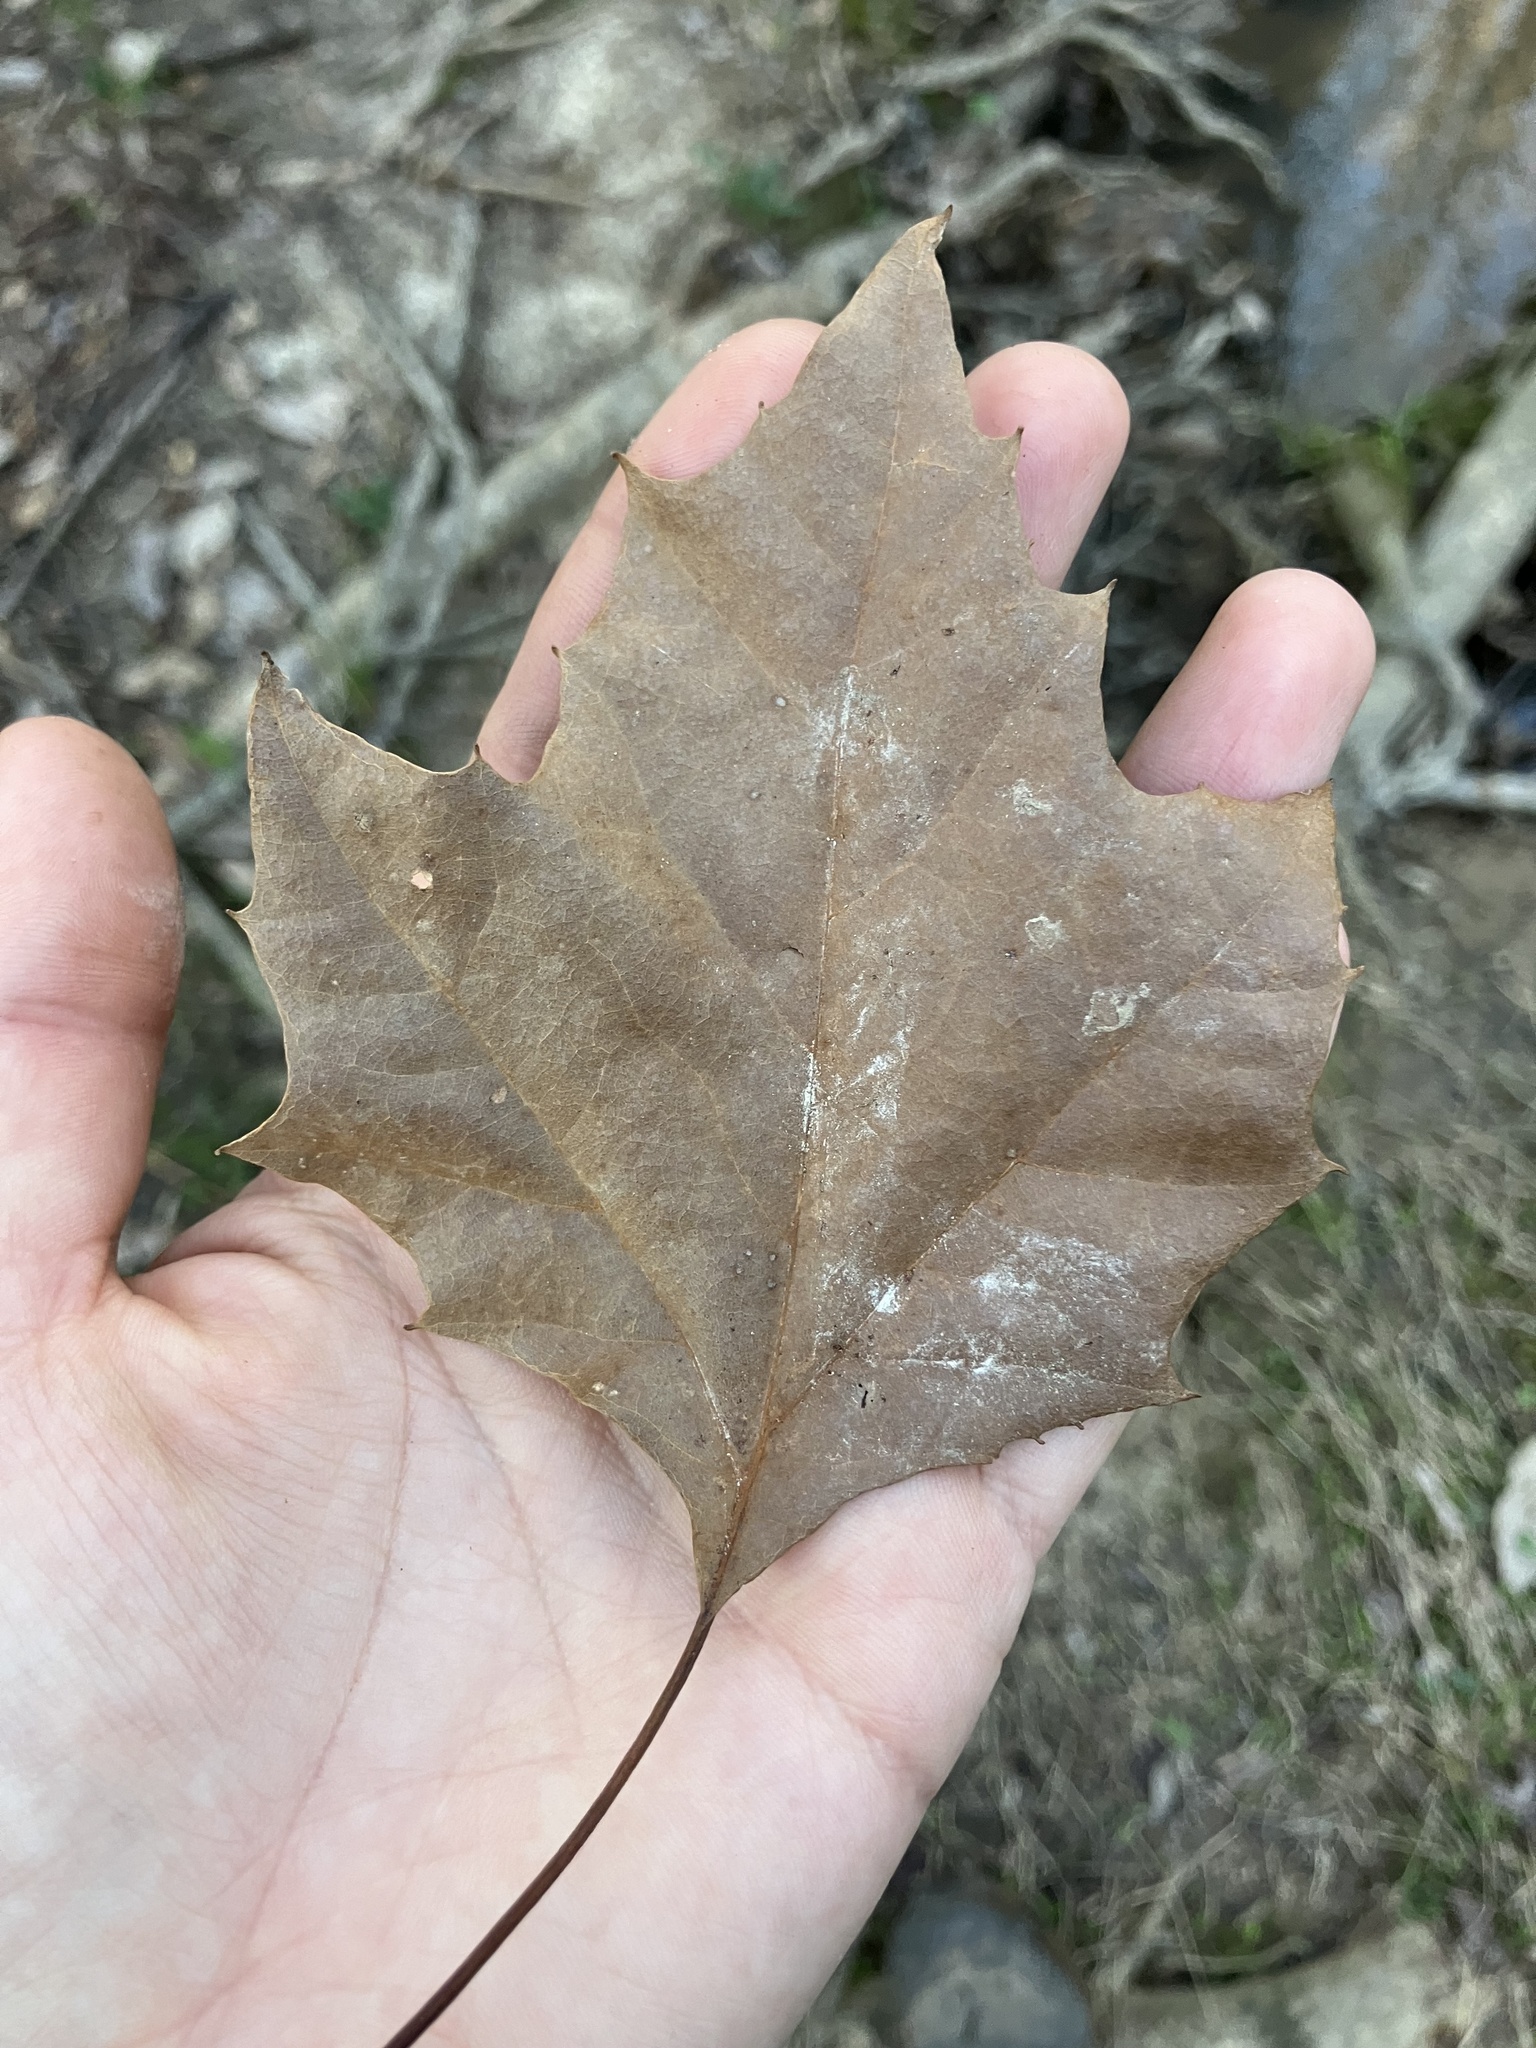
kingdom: Plantae
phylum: Tracheophyta
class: Magnoliopsida
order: Proteales
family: Platanaceae
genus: Platanus
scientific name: Platanus occidentalis
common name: American sycamore
